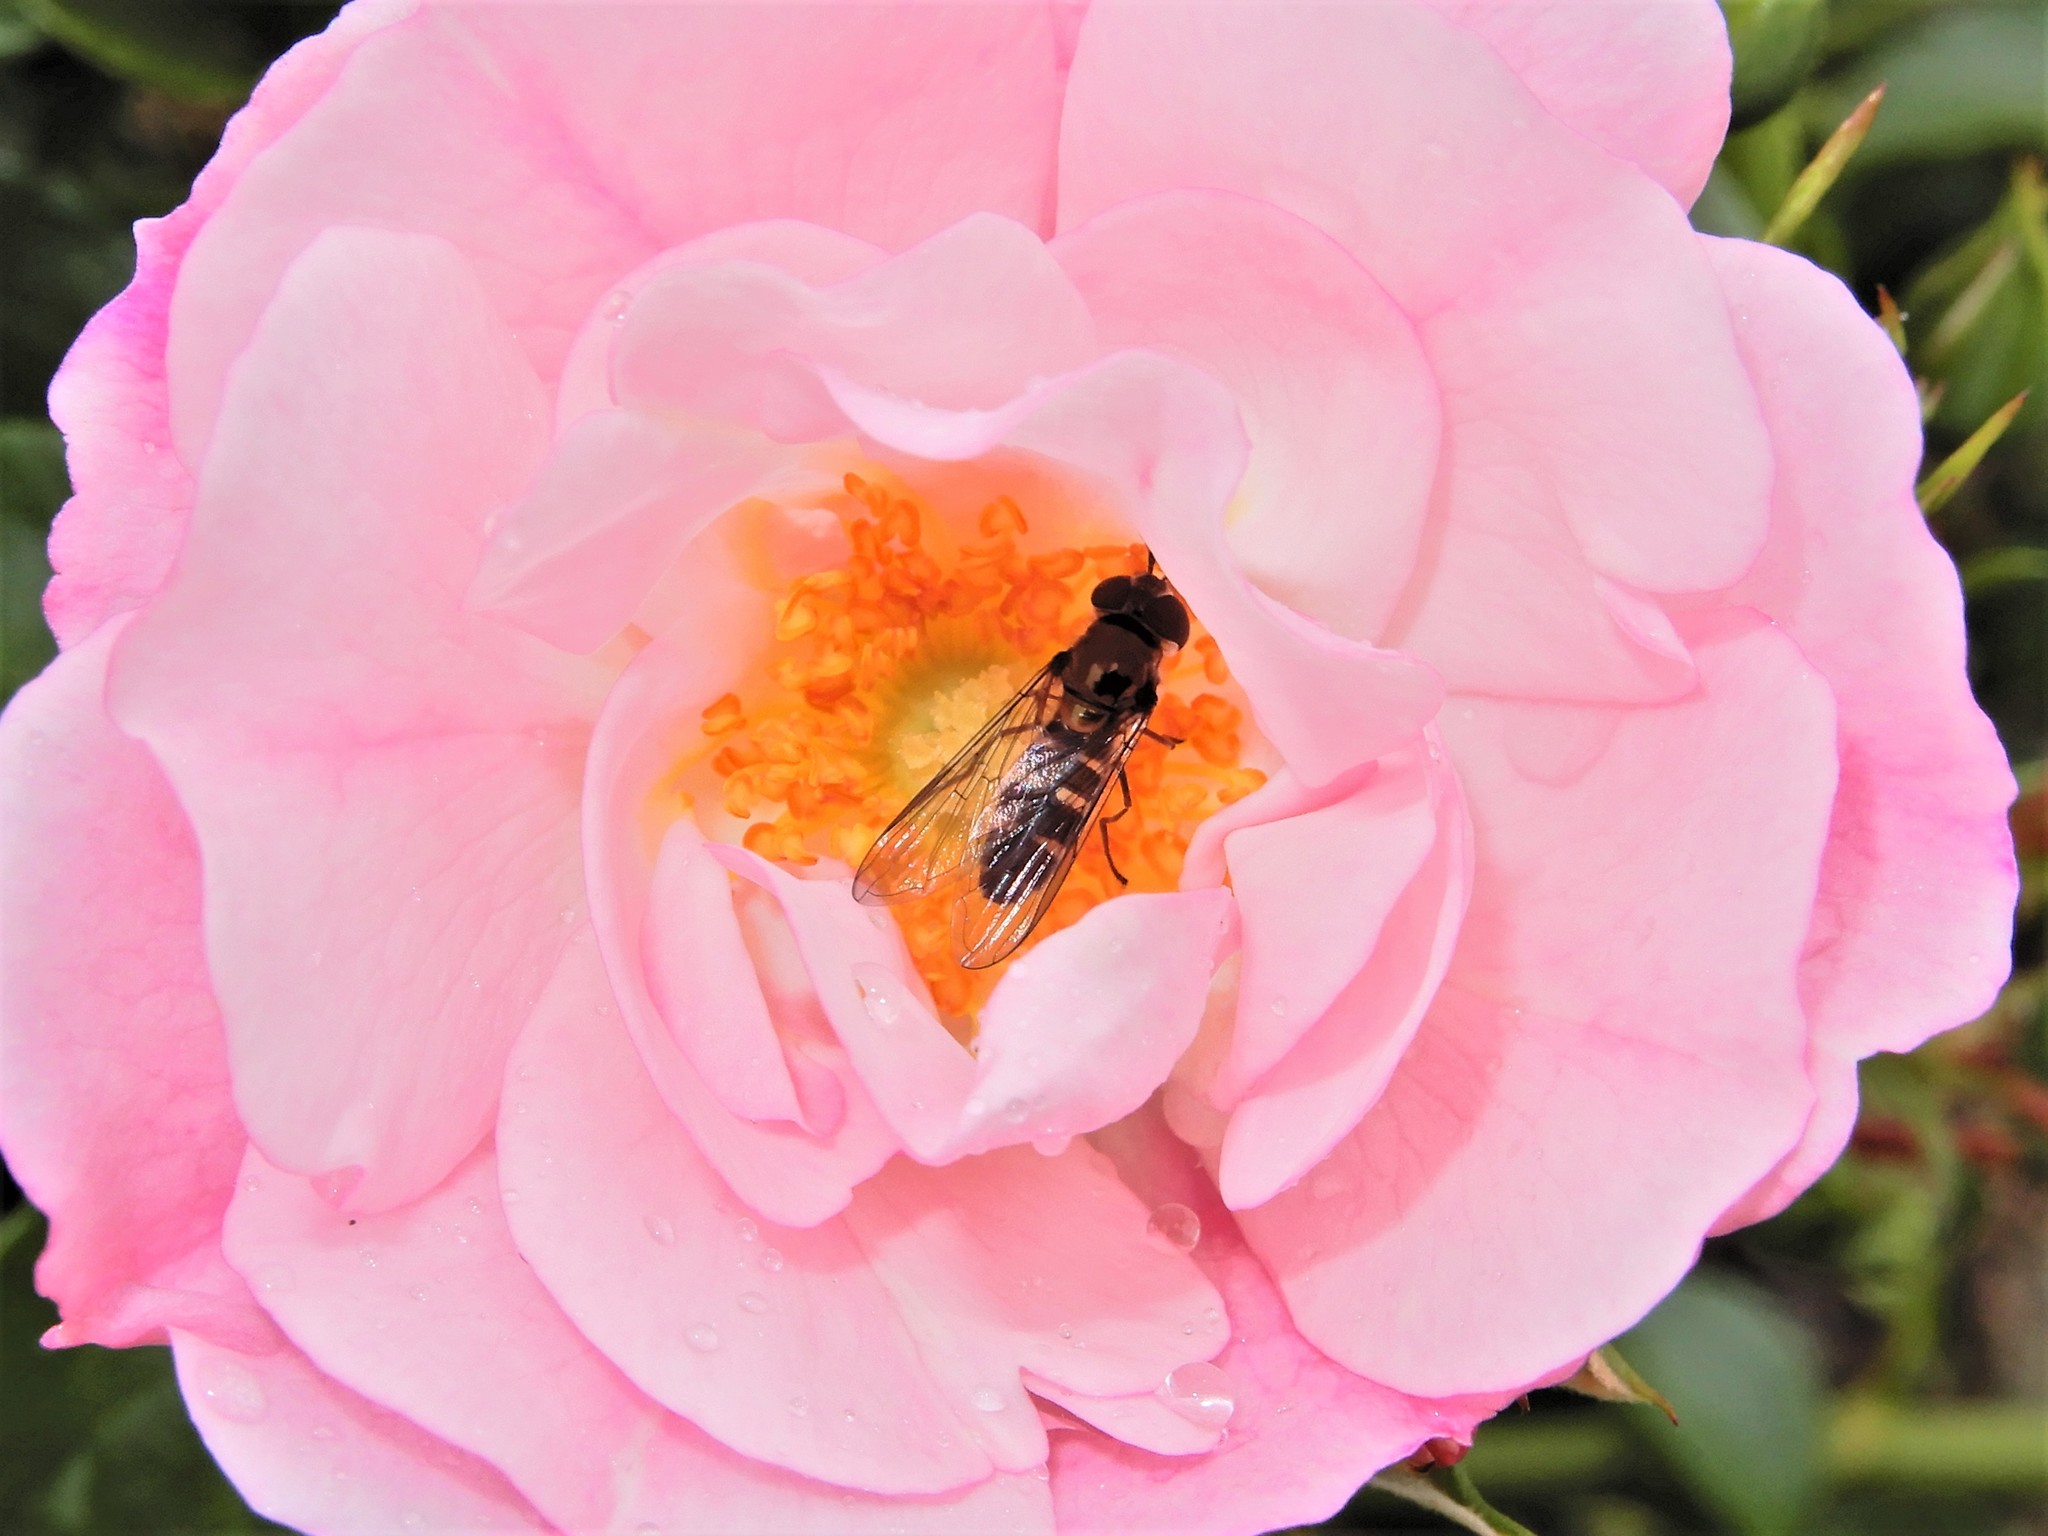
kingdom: Animalia
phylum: Arthropoda
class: Insecta
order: Diptera
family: Syrphidae
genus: Melangyna
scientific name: Melangyna novaezelandiae
